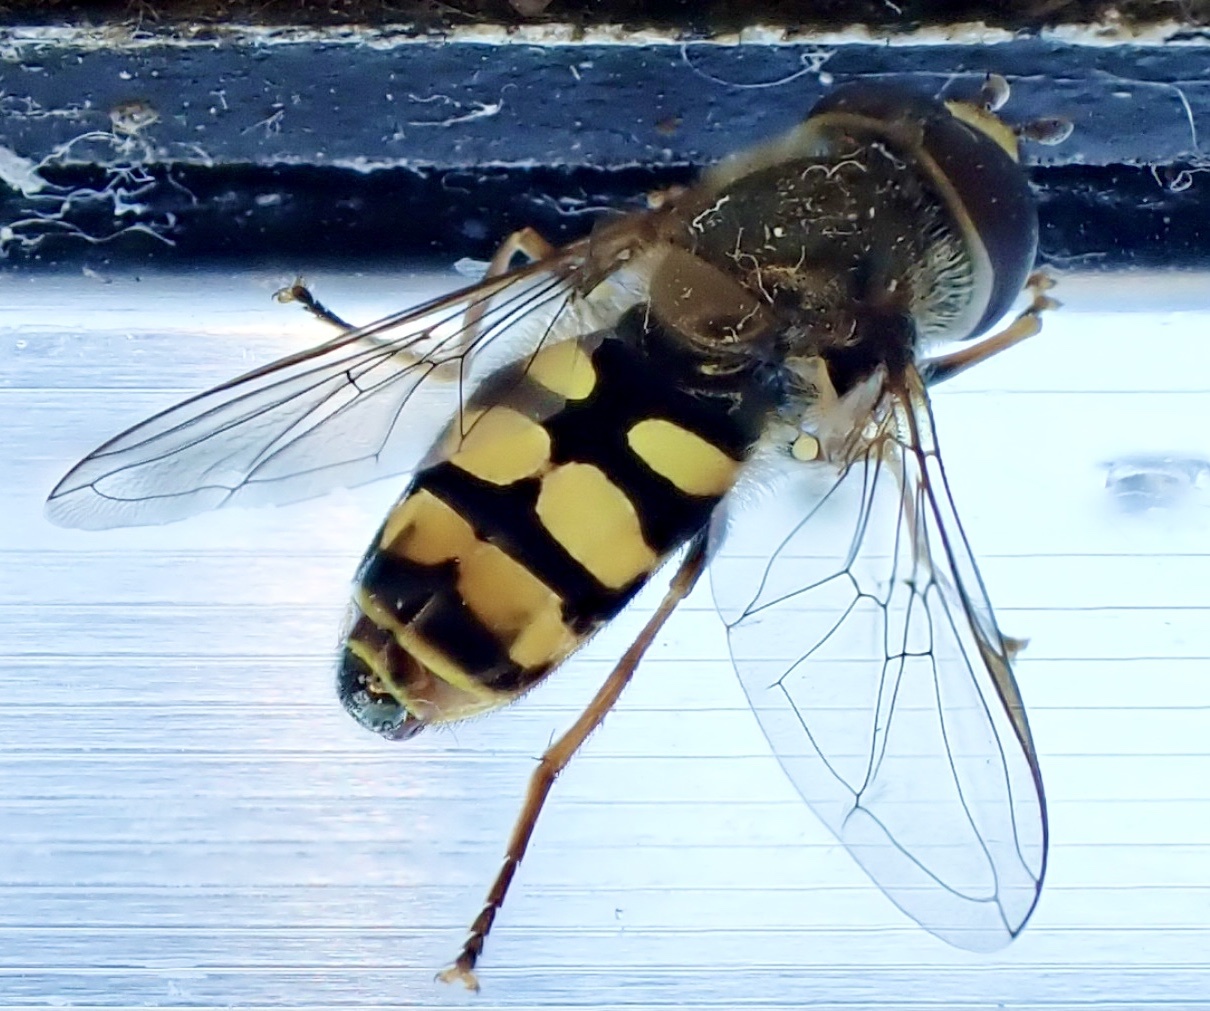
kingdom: Animalia
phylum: Arthropoda
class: Insecta
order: Diptera
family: Syrphidae
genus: Eupeodes
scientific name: Eupeodes corollae
